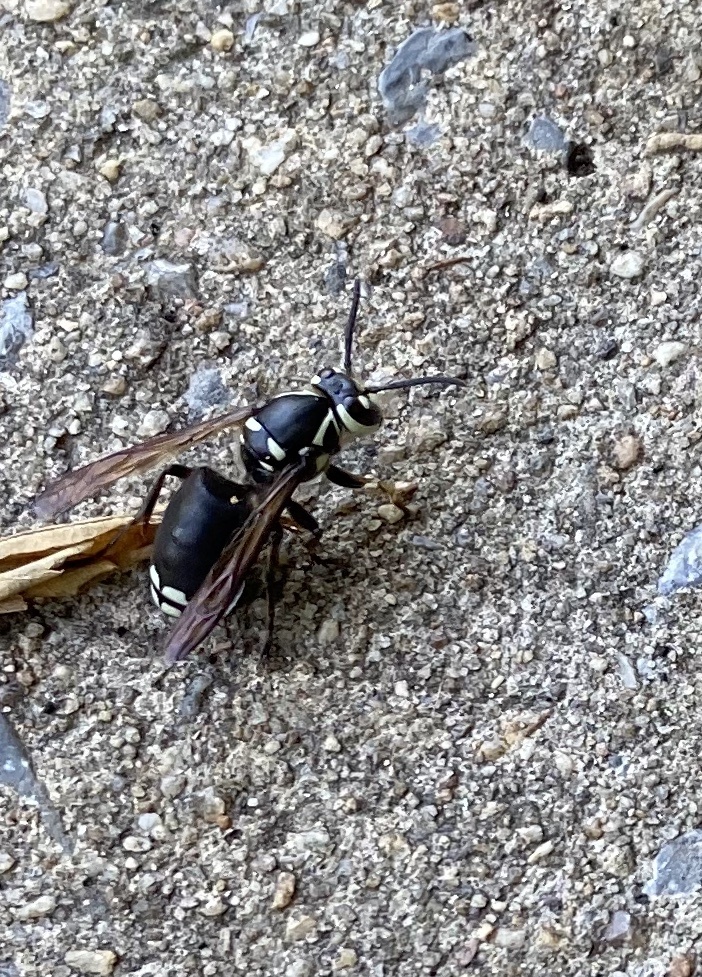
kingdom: Animalia
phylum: Arthropoda
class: Insecta
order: Hymenoptera
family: Vespidae
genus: Dolichovespula
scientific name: Dolichovespula maculata
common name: Bald-faced hornet
